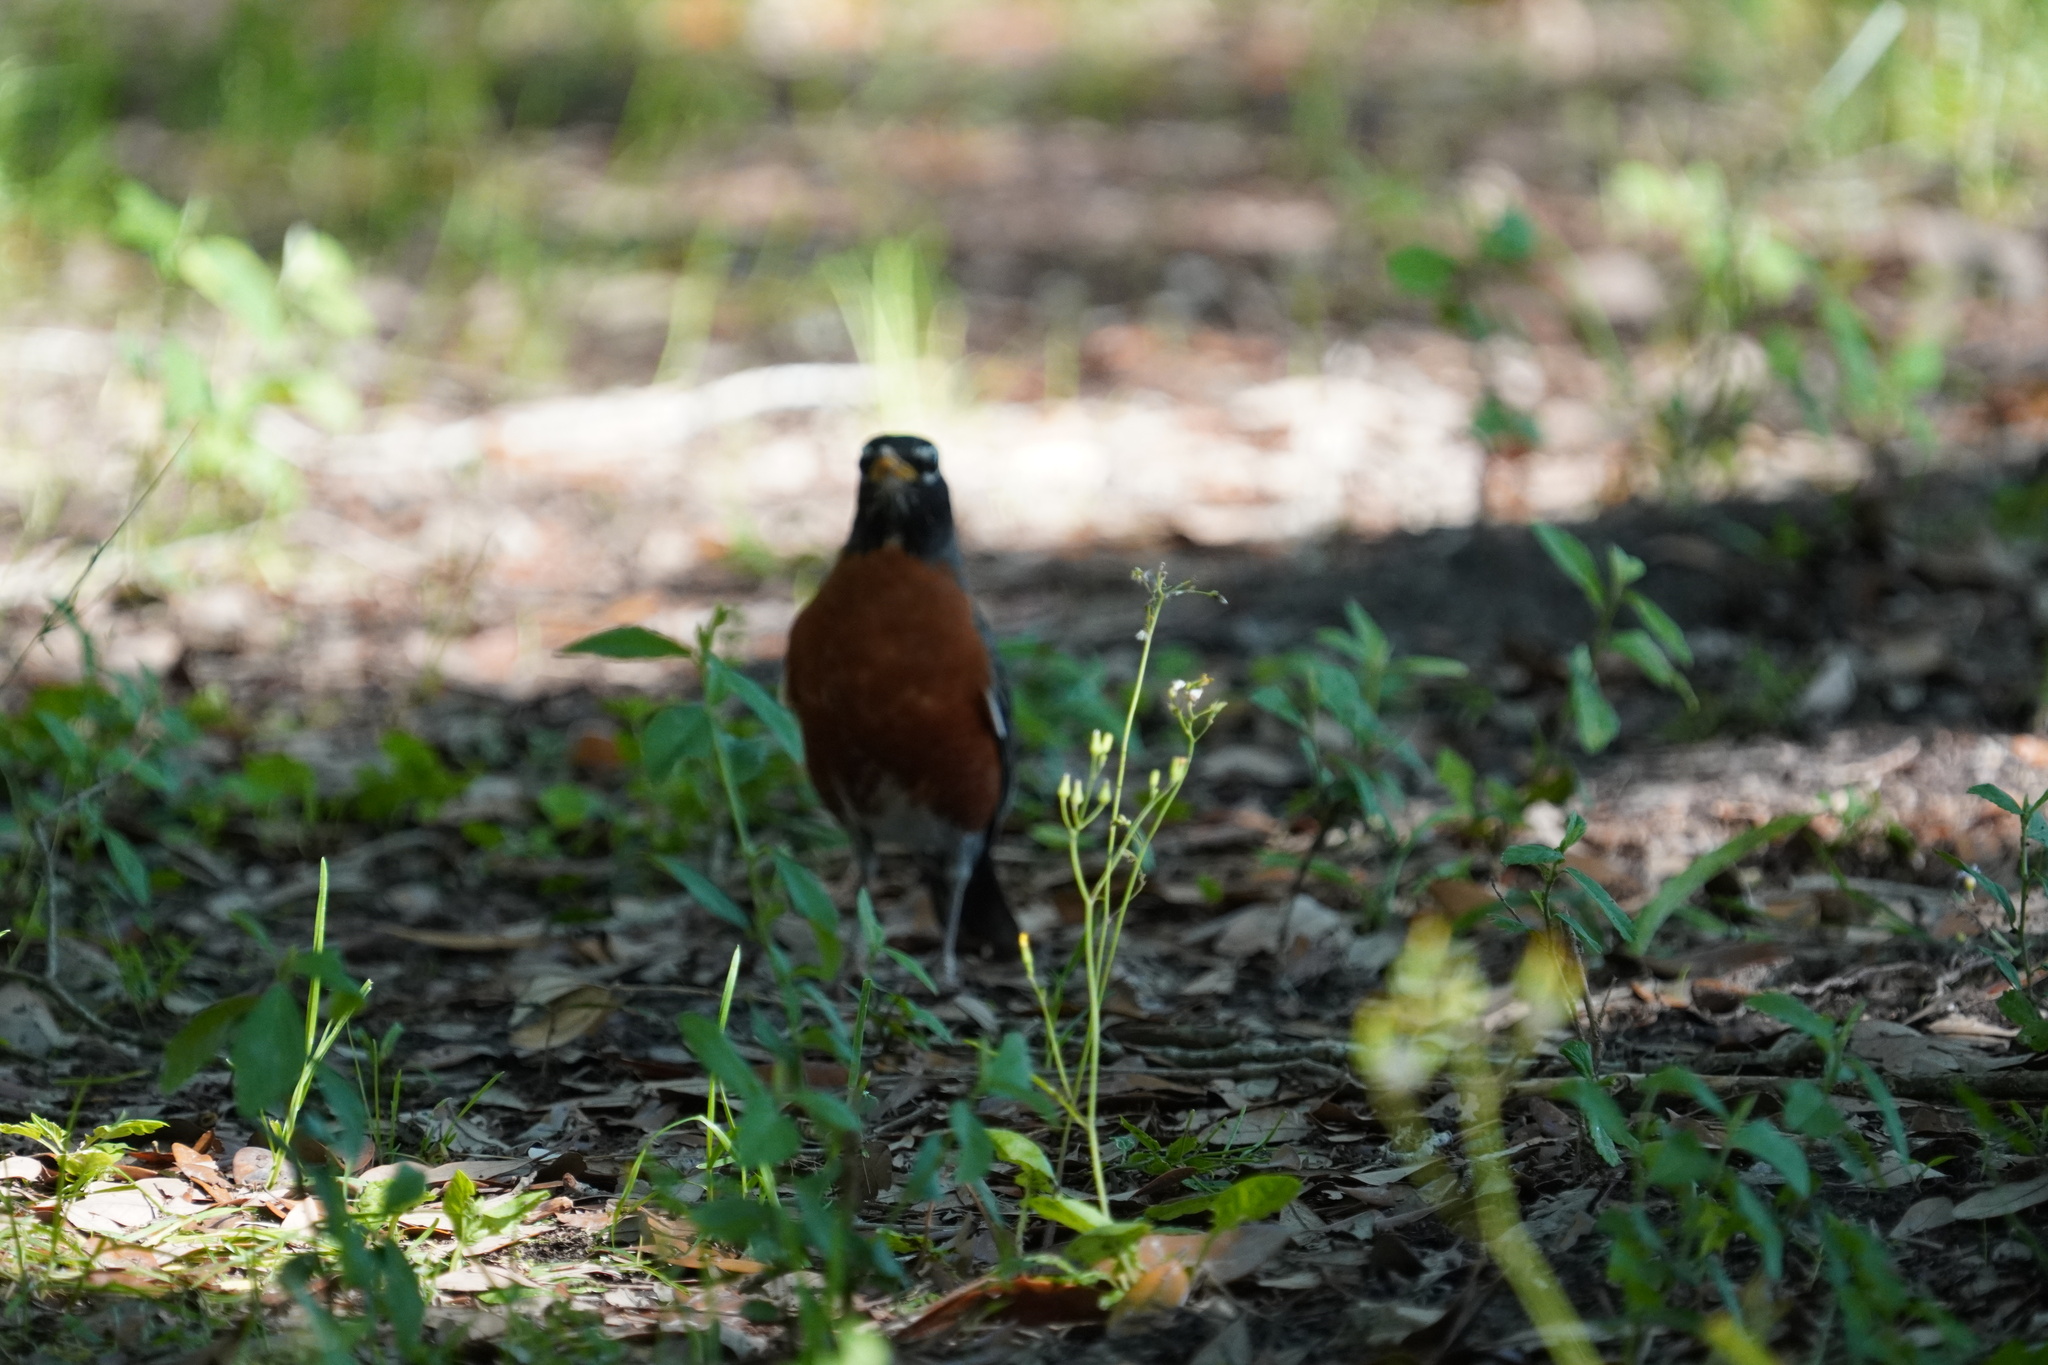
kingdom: Animalia
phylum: Chordata
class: Aves
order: Passeriformes
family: Turdidae
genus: Turdus
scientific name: Turdus migratorius
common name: American robin
